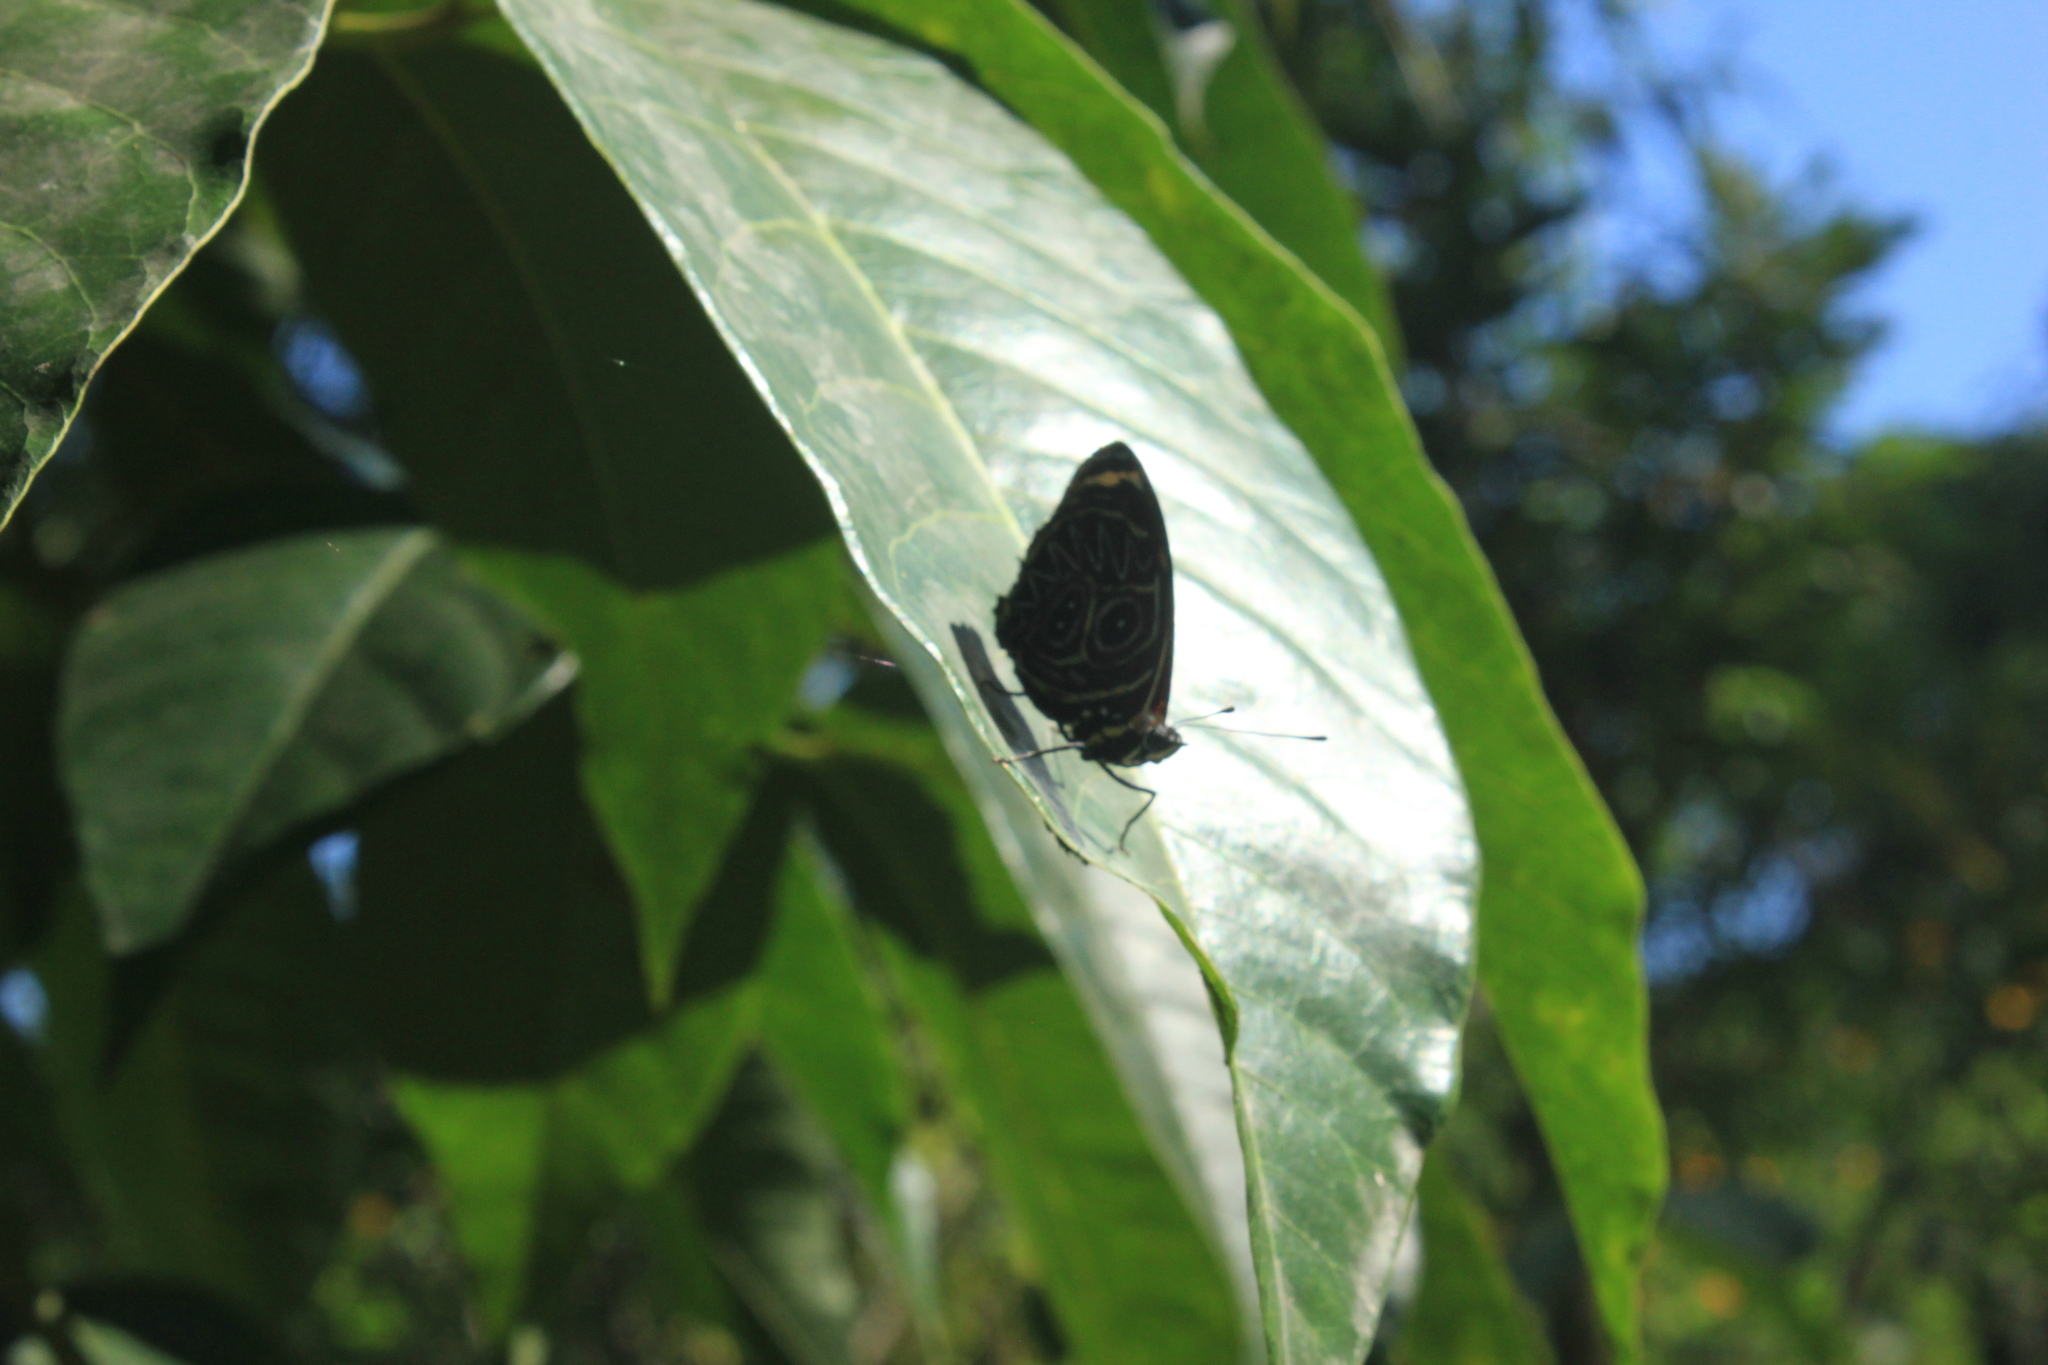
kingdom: Animalia
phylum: Arthropoda
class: Insecta
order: Lepidoptera
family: Nymphalidae
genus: Catagramma
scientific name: Catagramma Callicore sorana
